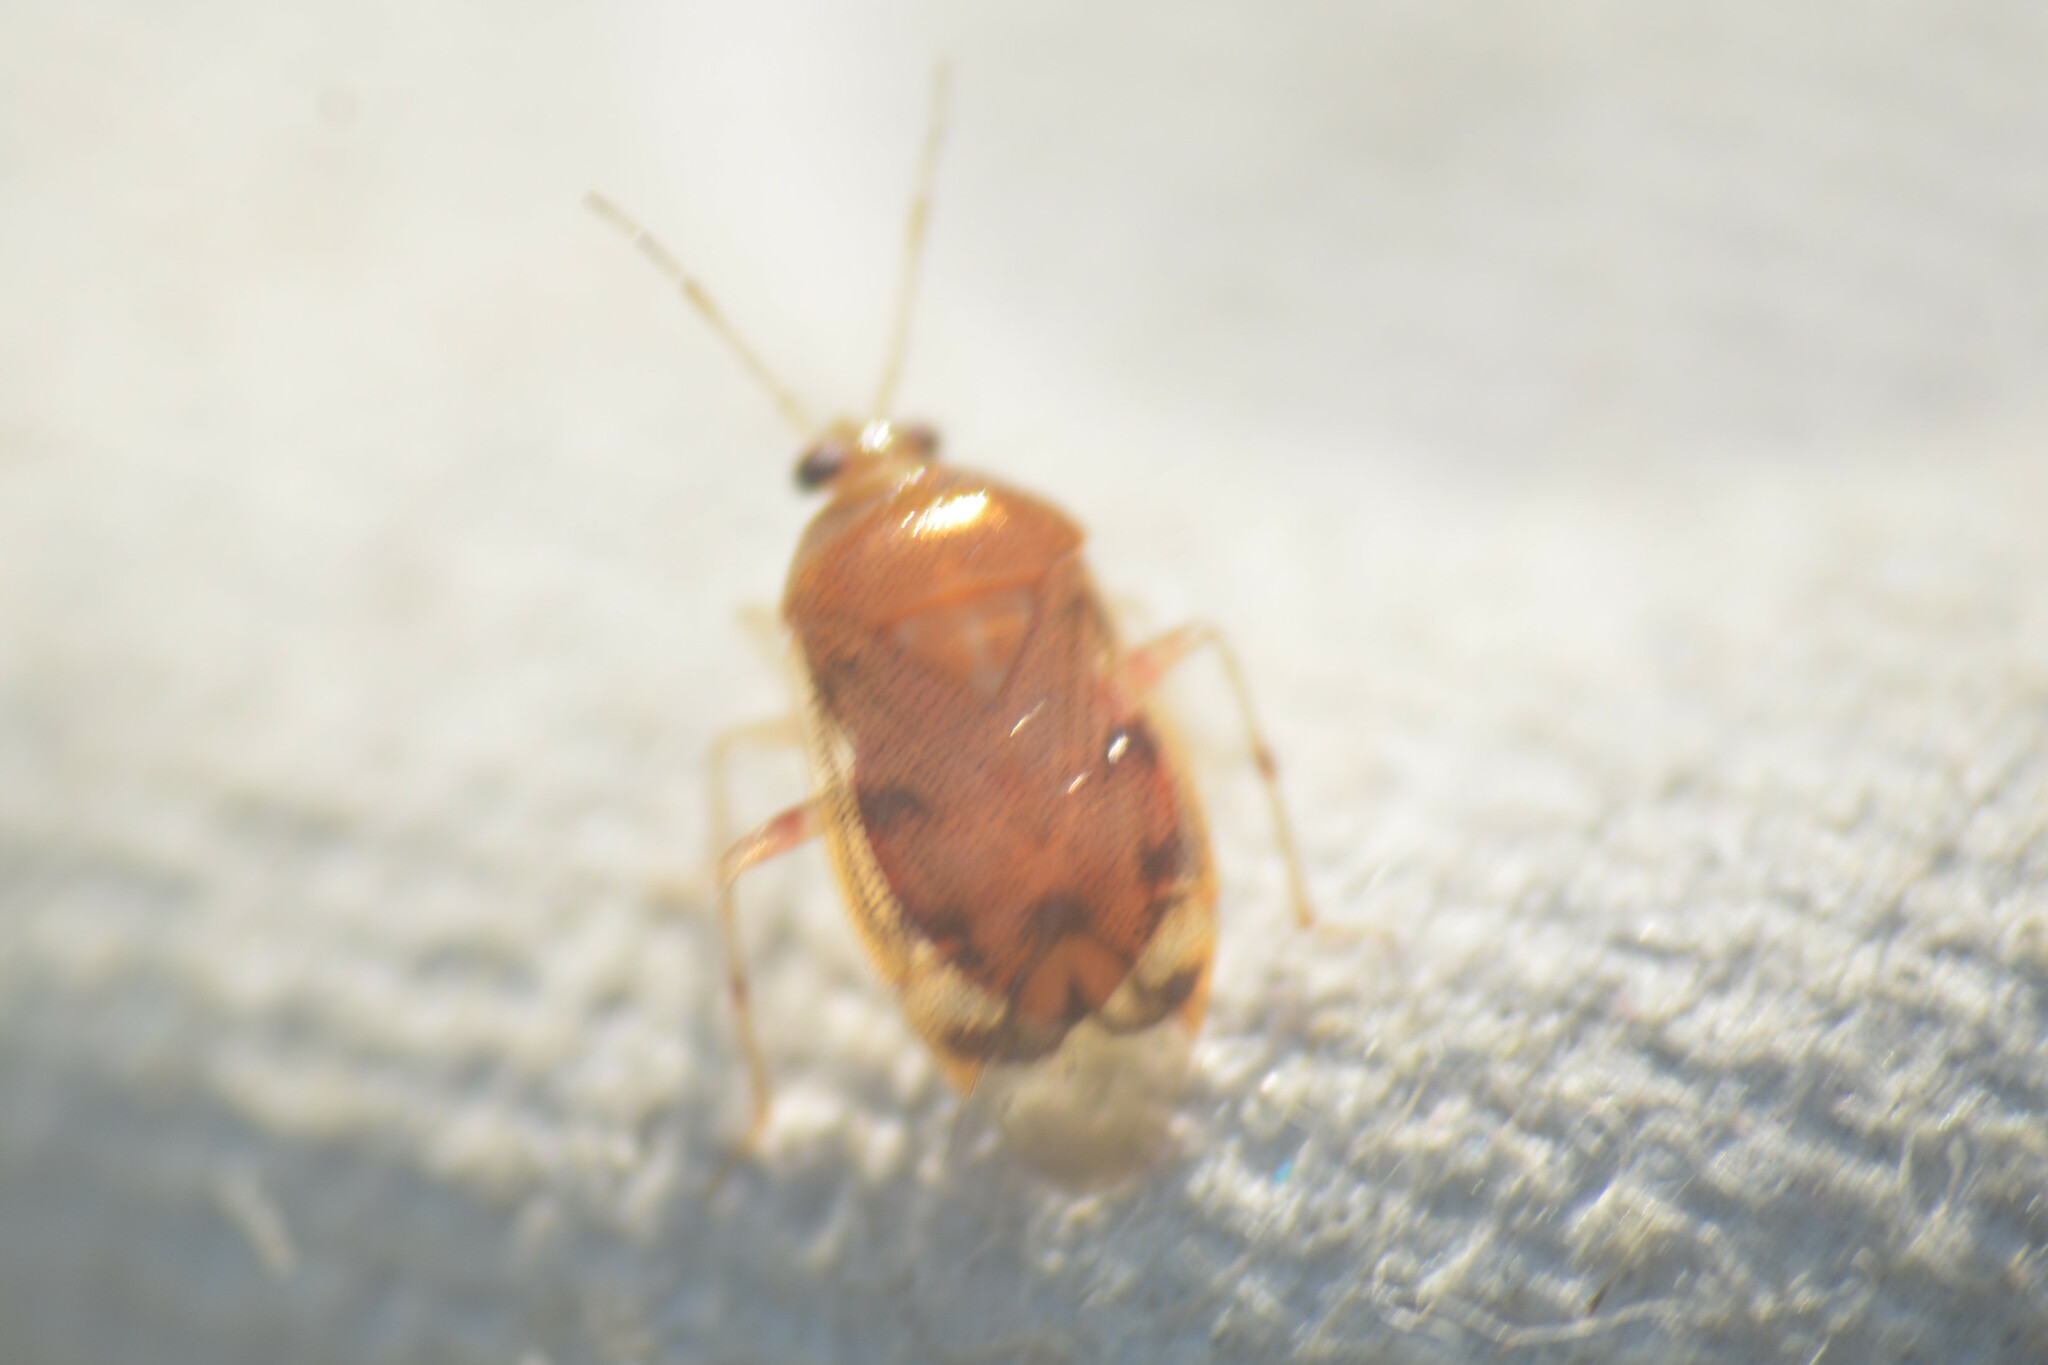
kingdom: Animalia
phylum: Arthropoda
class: Insecta
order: Hemiptera
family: Miridae
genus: Deraeocoris
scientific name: Deraeocoris lutescens
